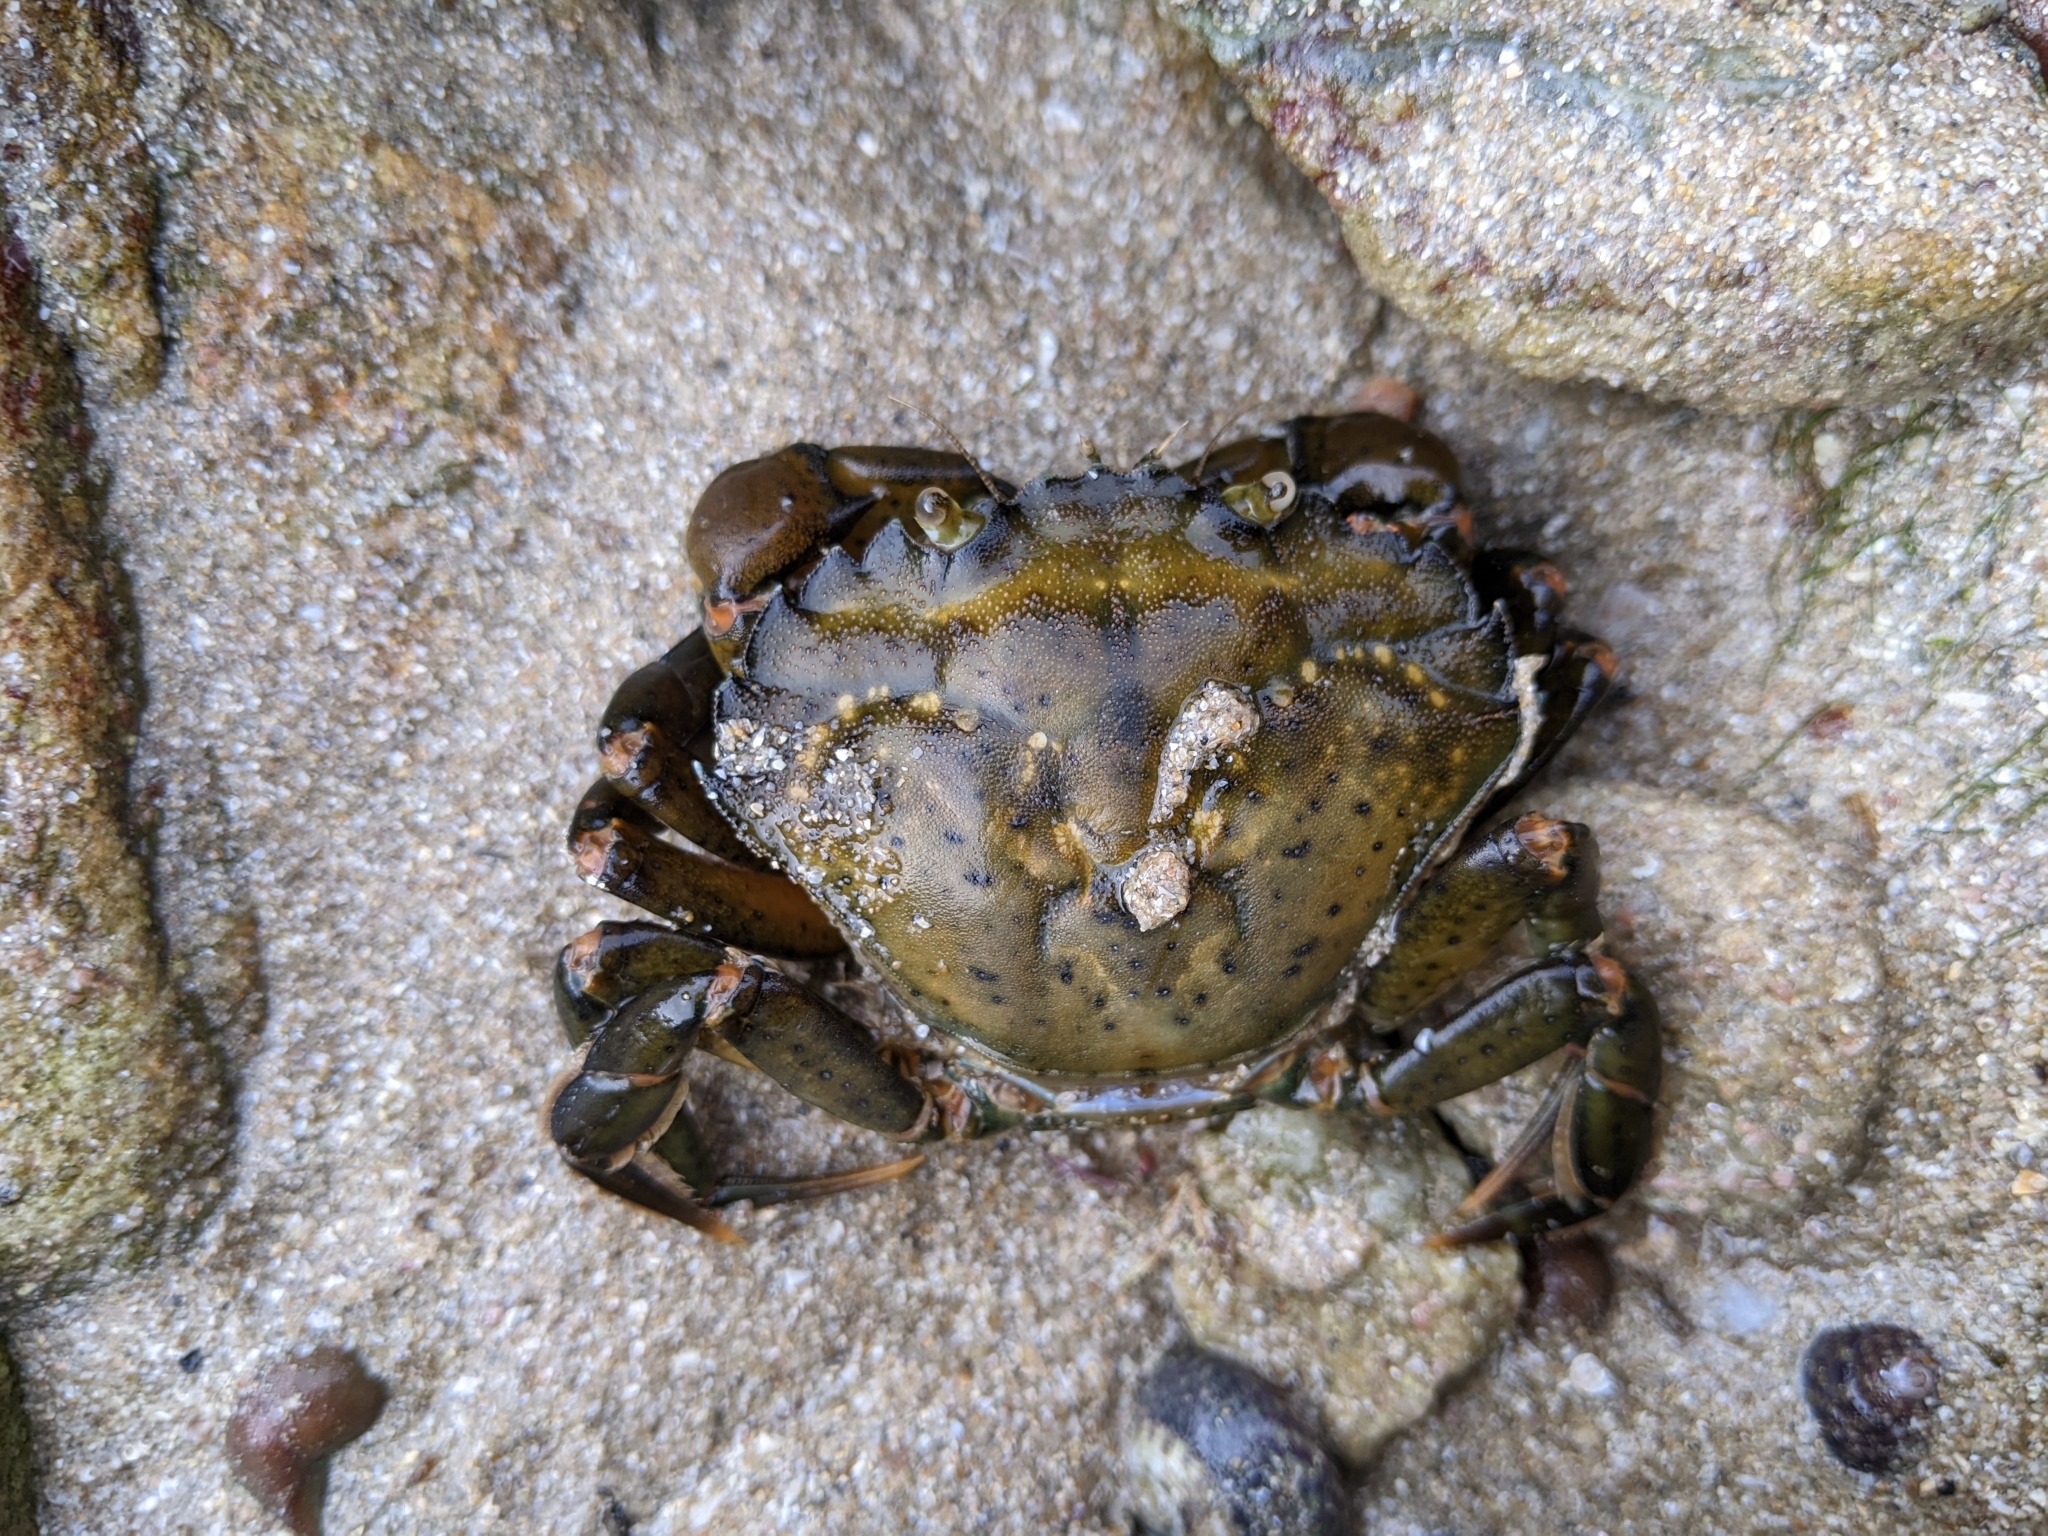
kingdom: Animalia
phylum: Arthropoda
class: Malacostraca
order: Decapoda
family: Carcinidae
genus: Carcinus
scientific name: Carcinus maenas
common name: European green crab
